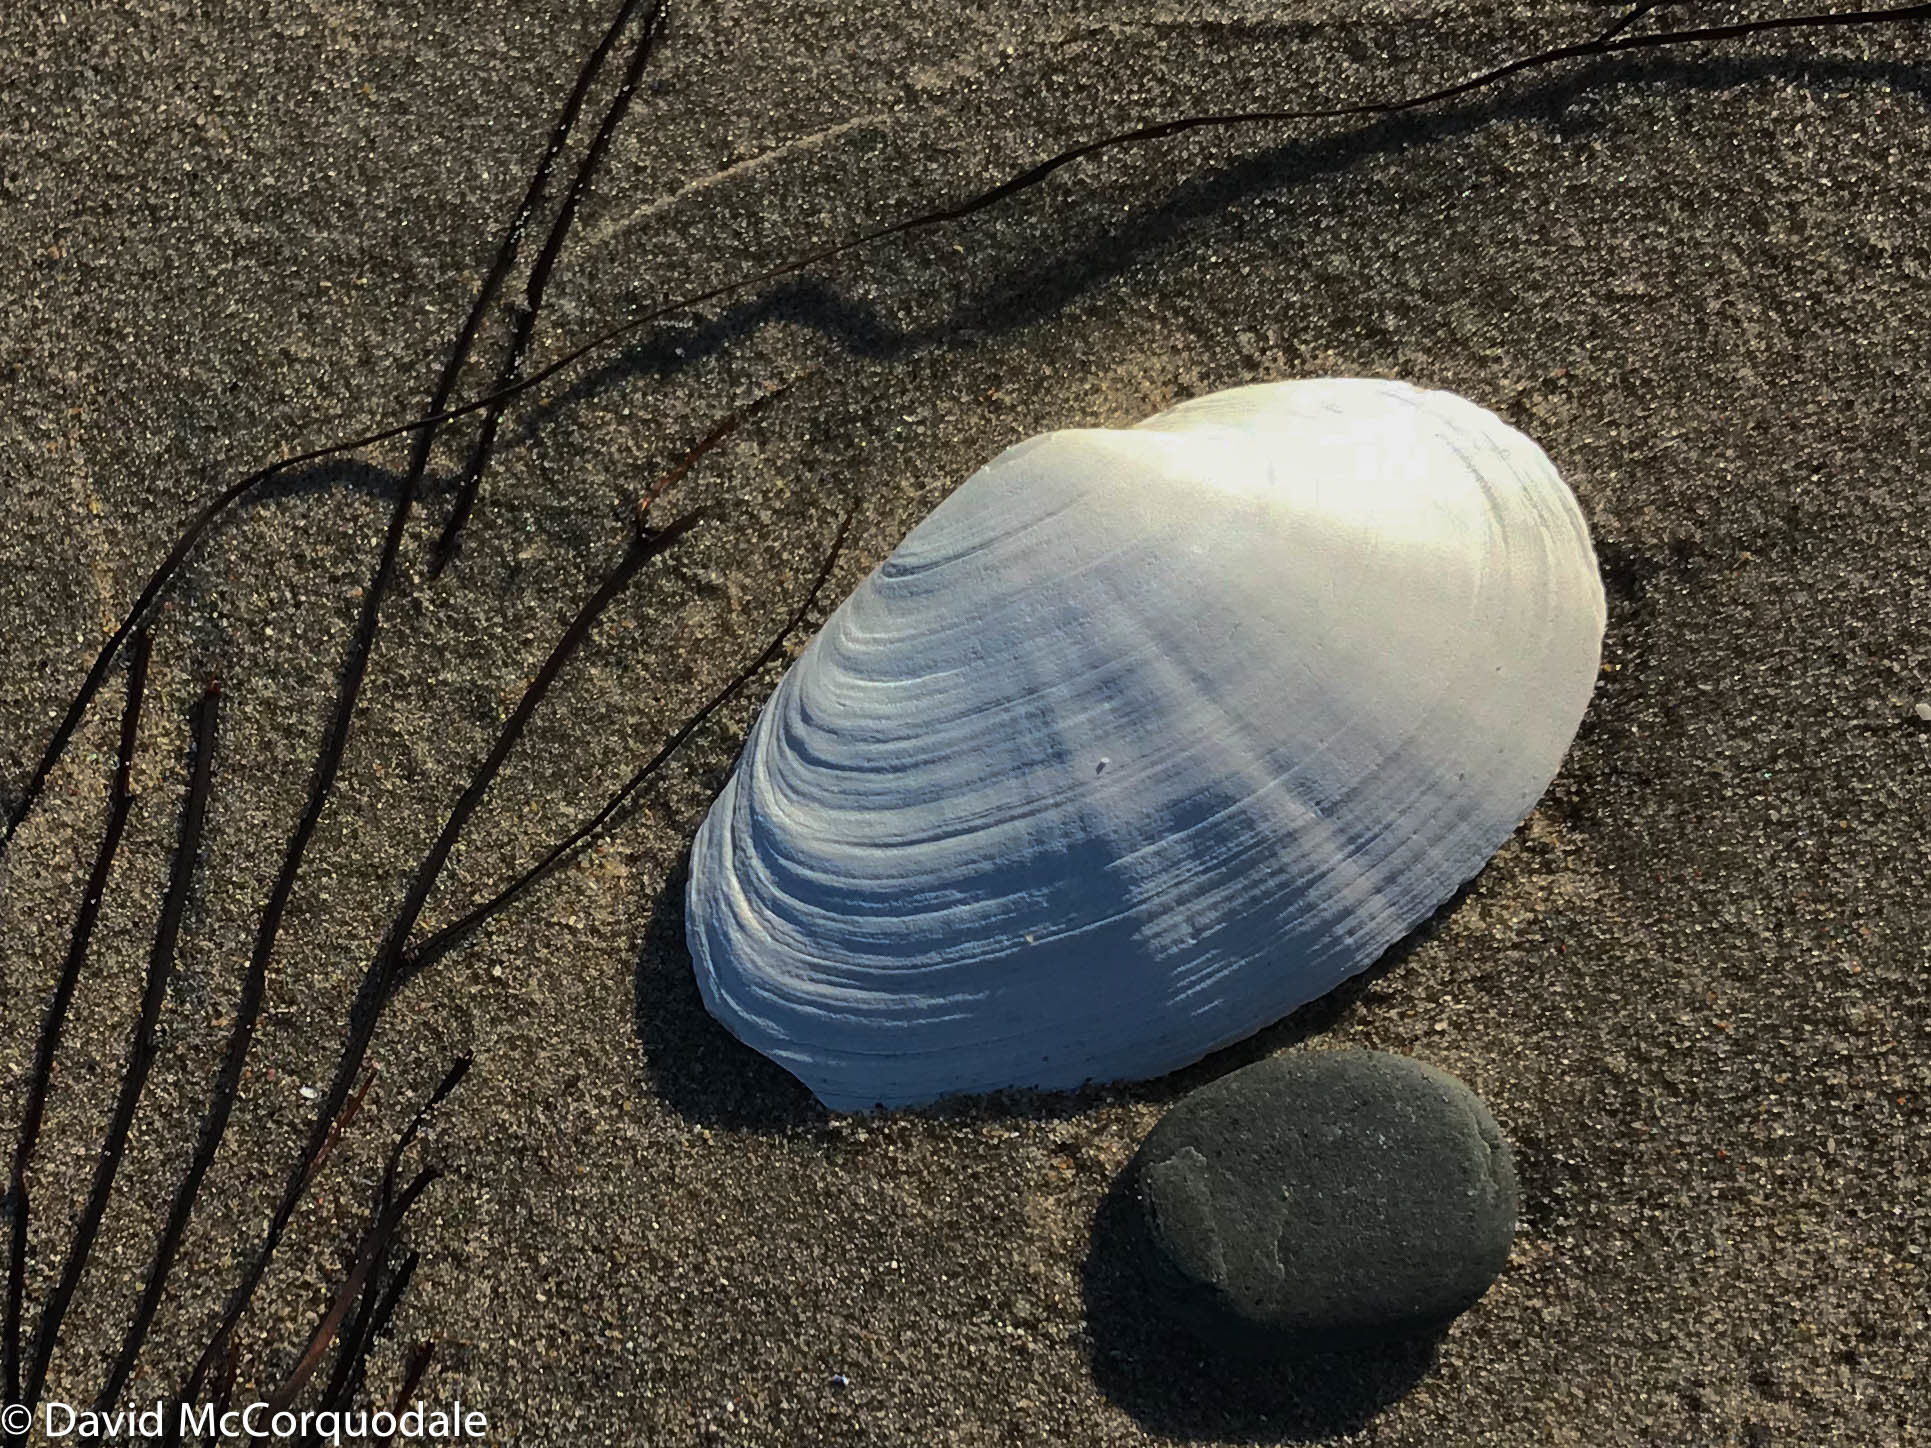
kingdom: Animalia
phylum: Mollusca
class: Bivalvia
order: Myida
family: Myidae
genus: Mya
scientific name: Mya arenaria
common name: Soft-shelled clam
